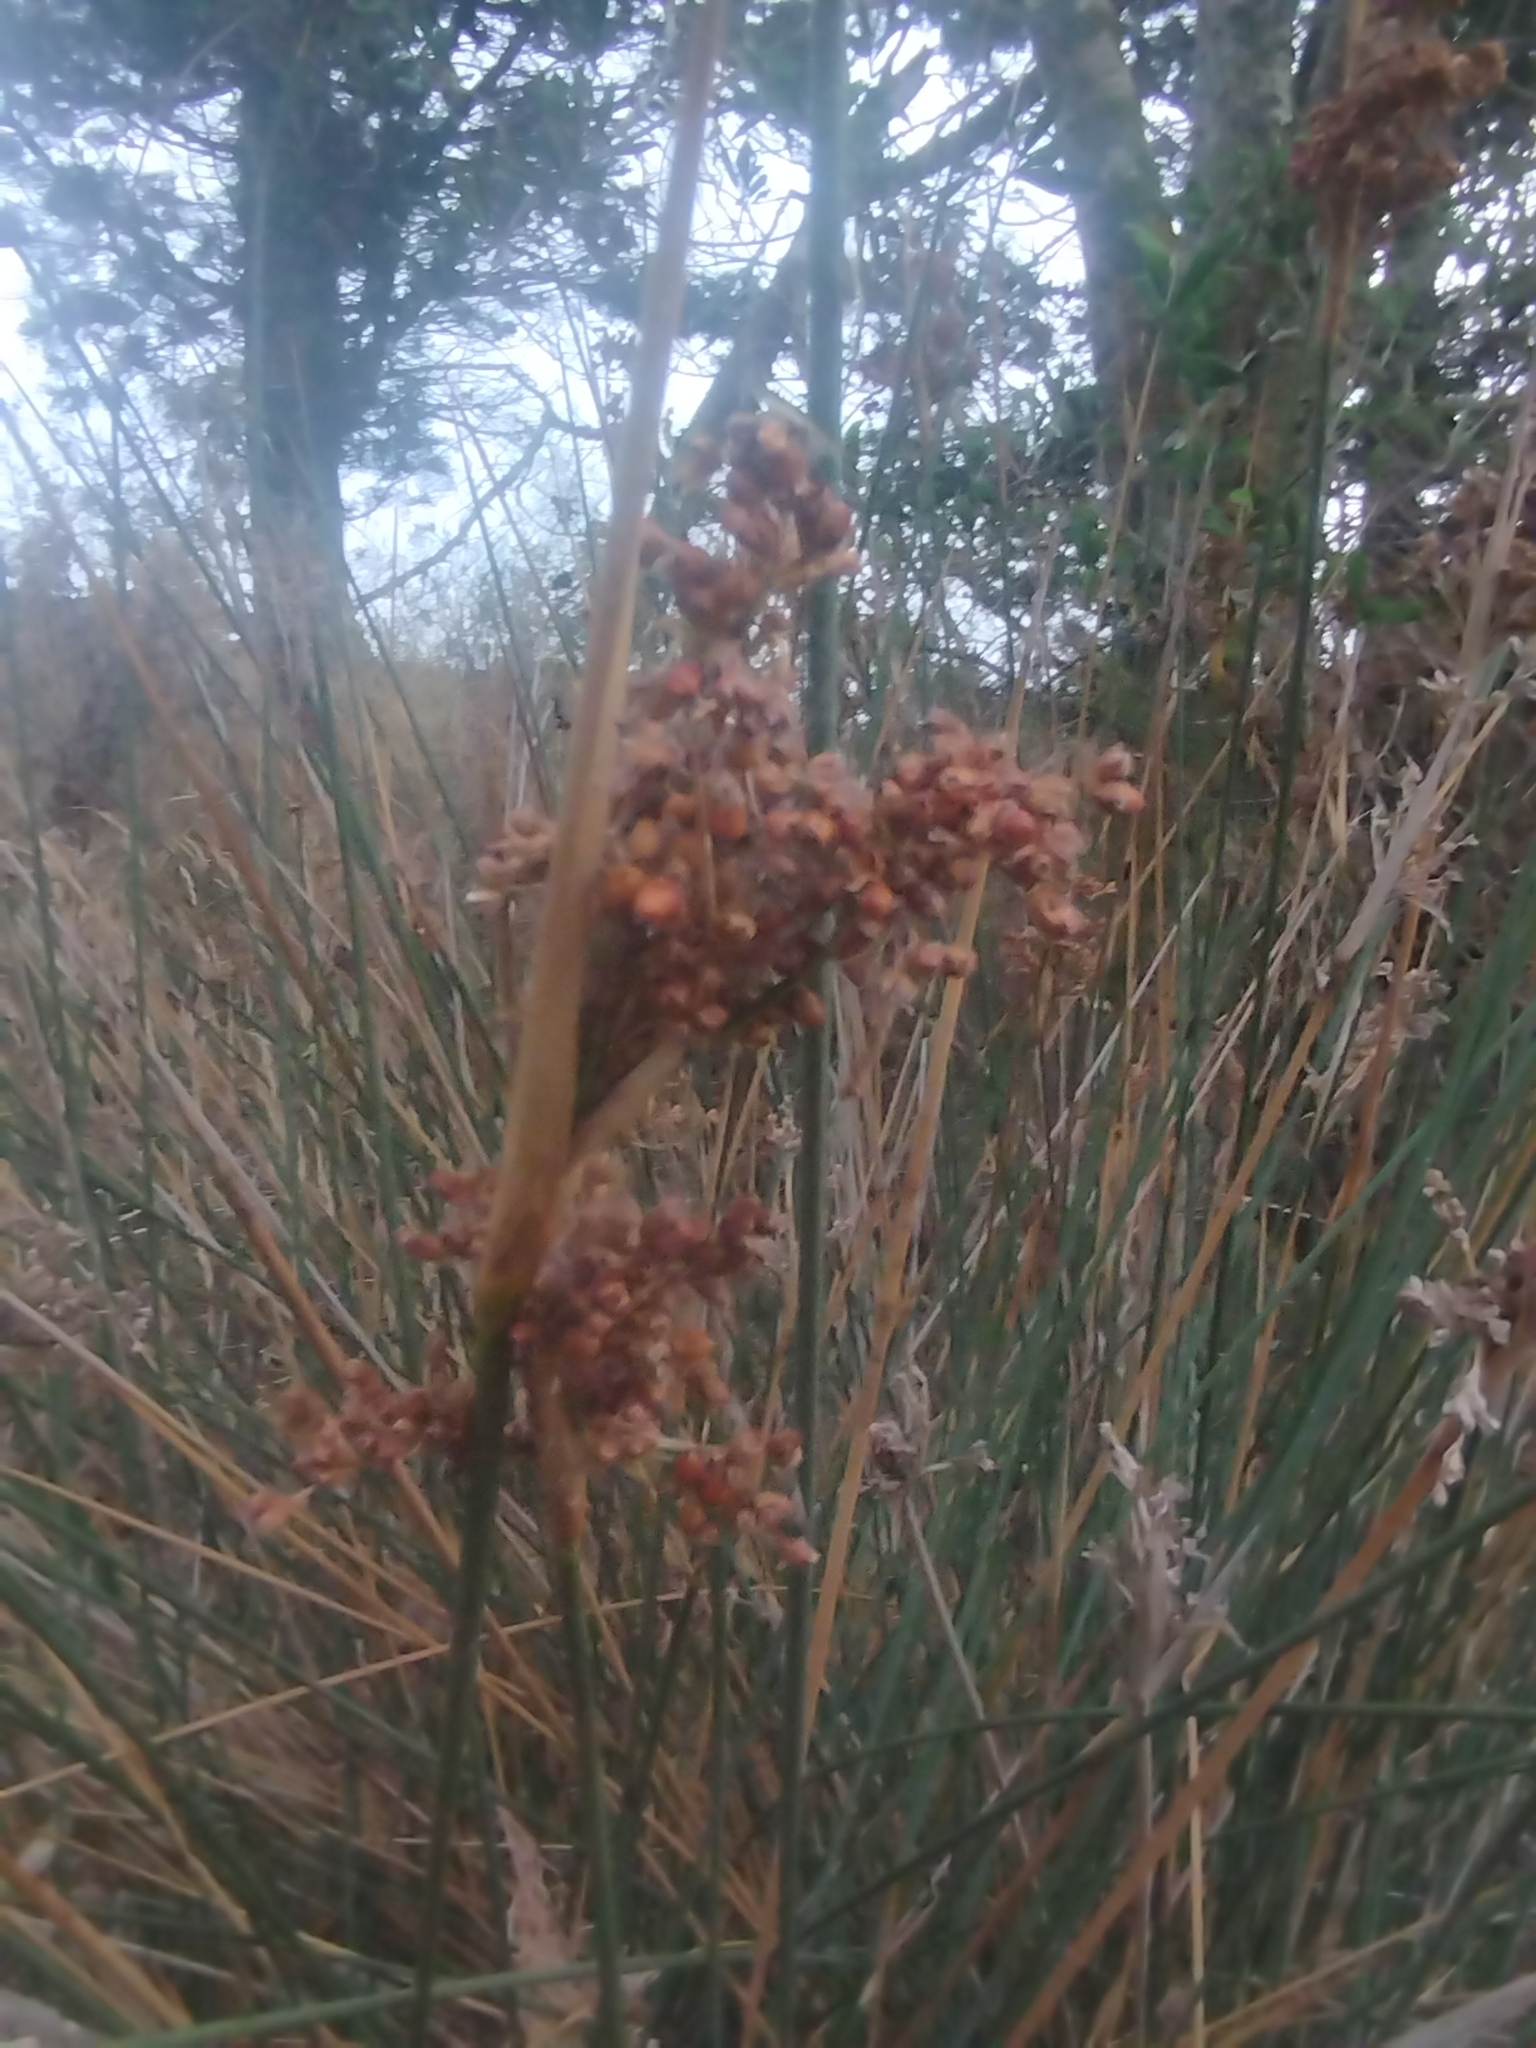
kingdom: Plantae
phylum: Tracheophyta
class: Liliopsida
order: Poales
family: Juncaceae
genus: Juncus
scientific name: Juncus acutus
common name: Sharp rush
